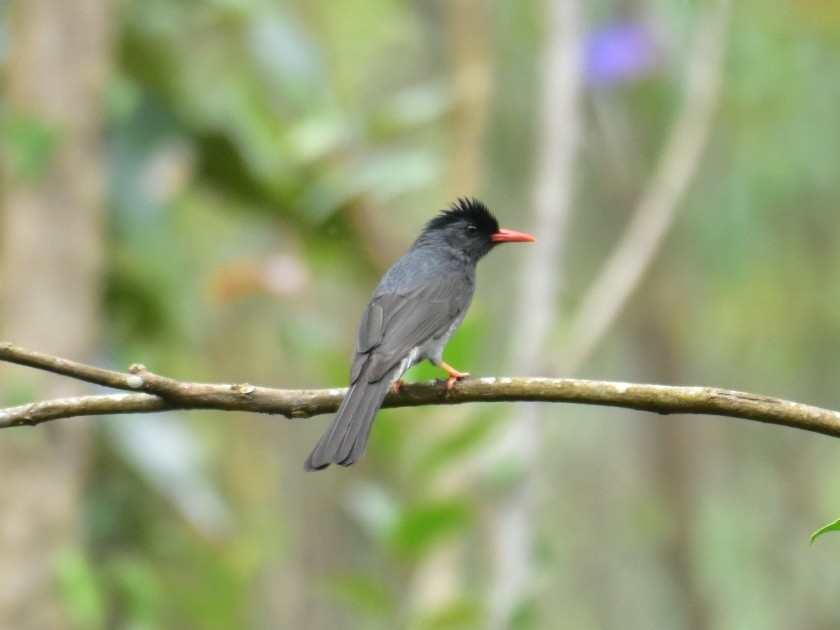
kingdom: Animalia
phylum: Chordata
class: Aves
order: Passeriformes
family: Pycnonotidae
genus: Hypsipetes
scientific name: Hypsipetes ganeesa
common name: Square-tailed bulbul
